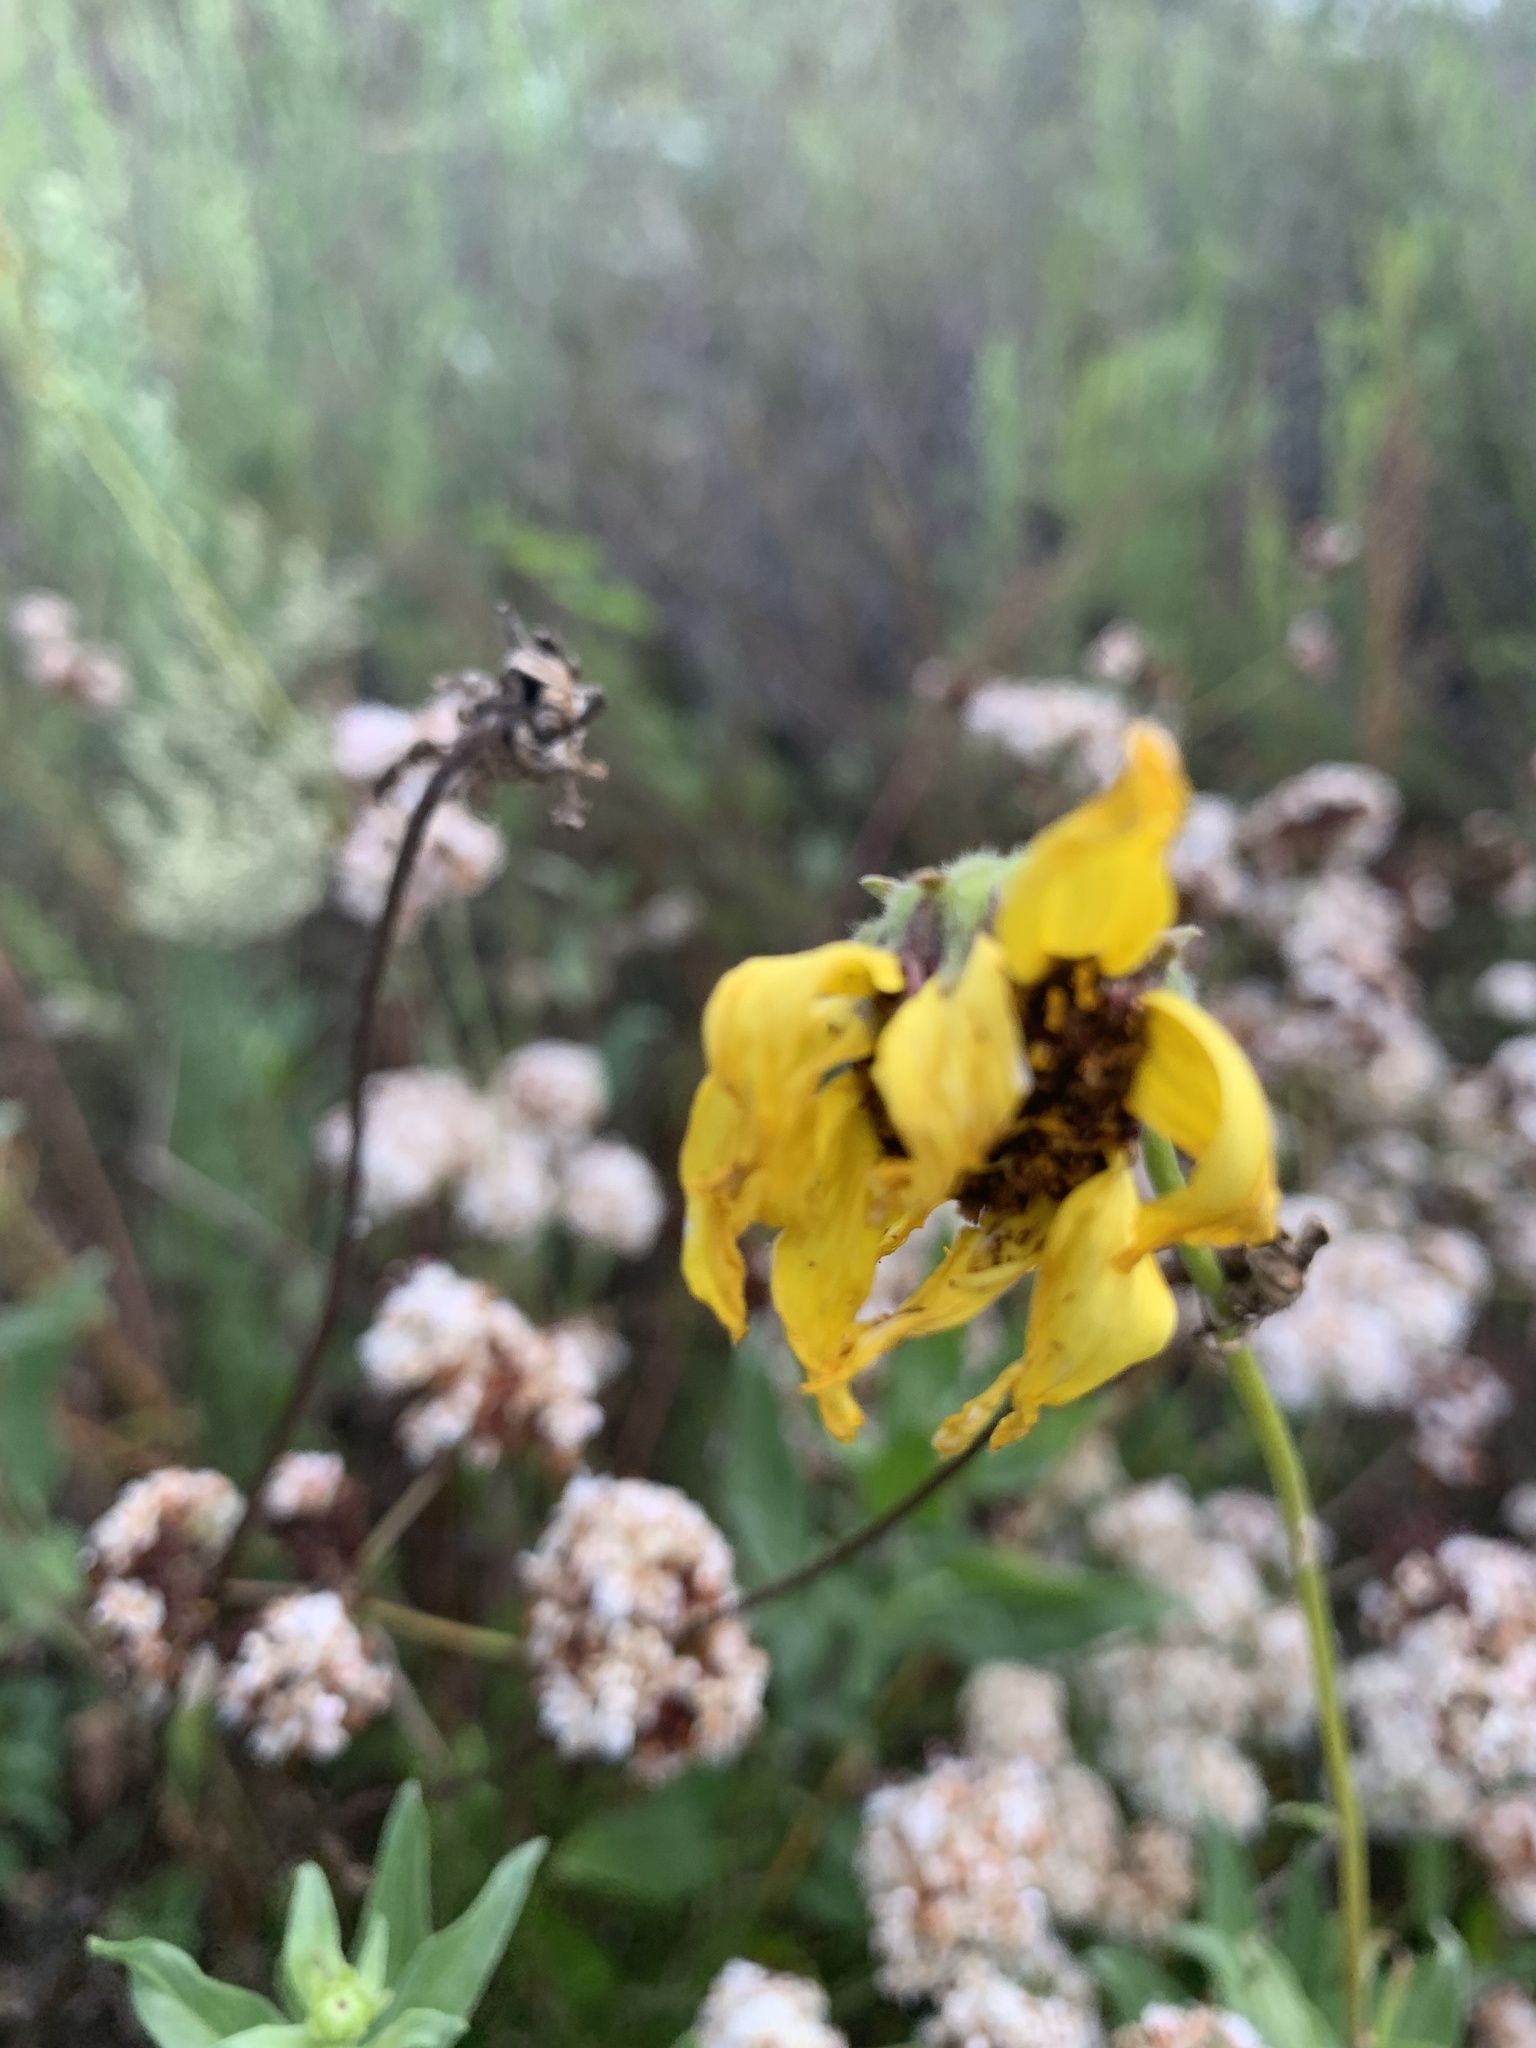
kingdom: Plantae
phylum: Tracheophyta
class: Magnoliopsida
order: Asterales
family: Asteraceae
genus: Encelia
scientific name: Encelia californica
